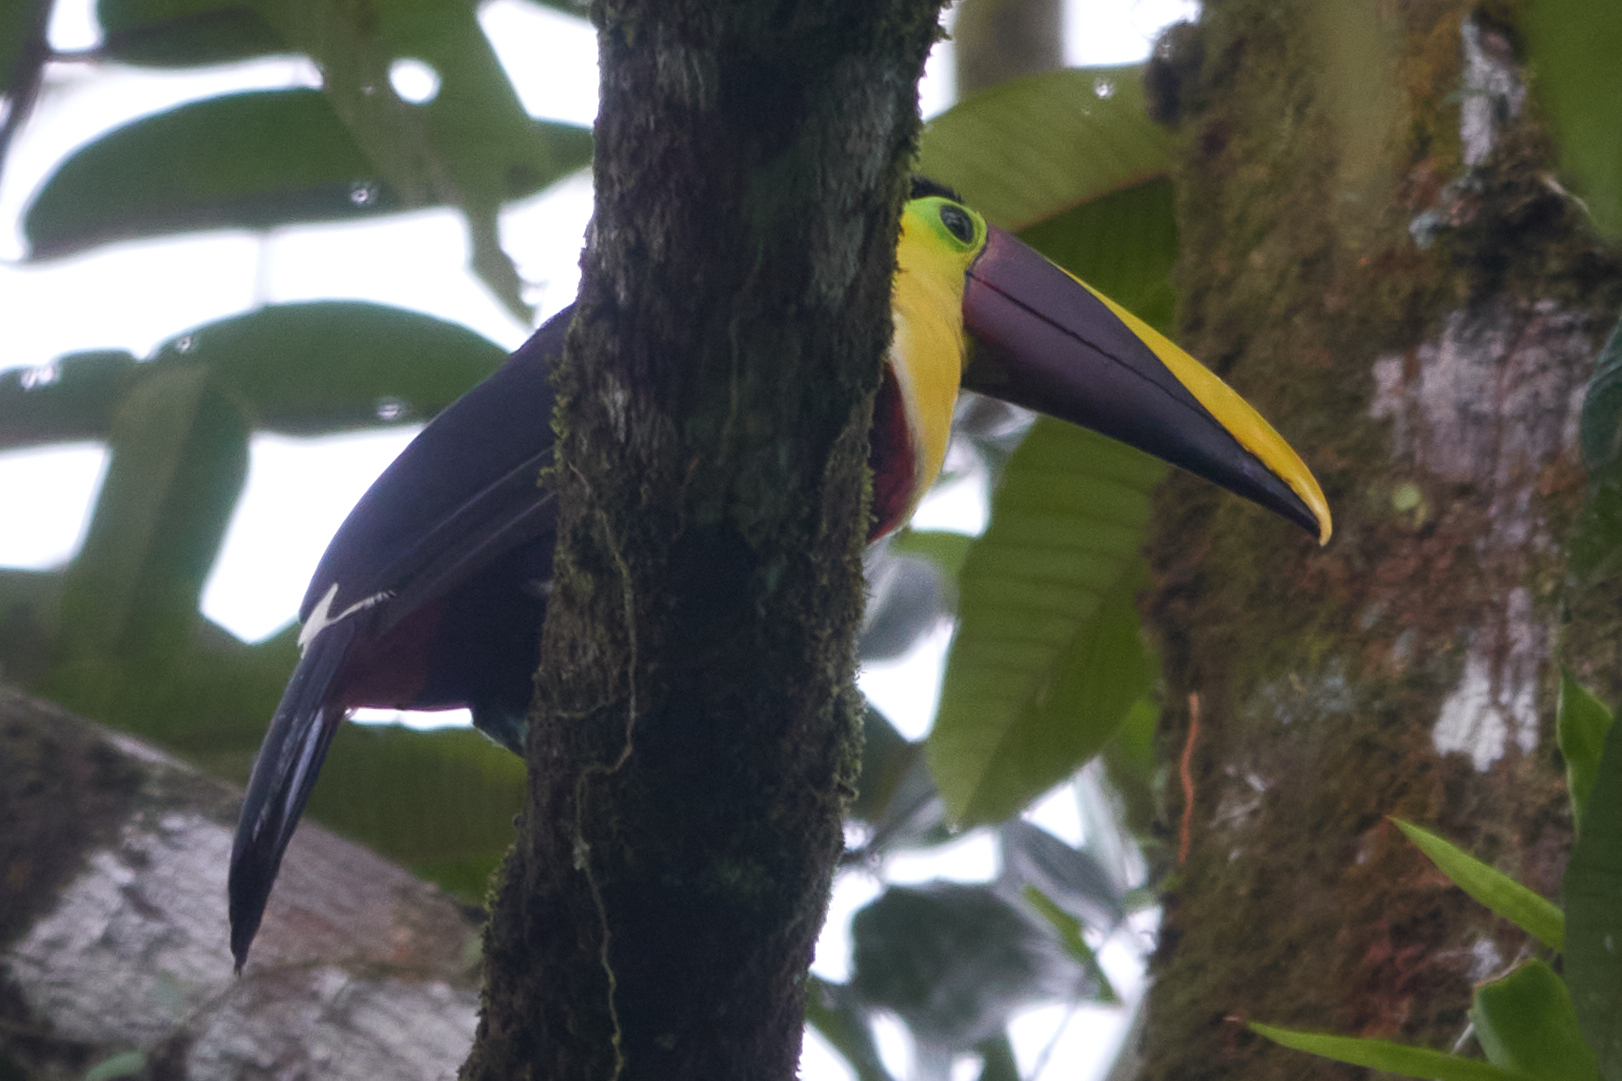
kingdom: Animalia
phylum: Chordata
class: Aves
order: Piciformes
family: Ramphastidae
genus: Ramphastos
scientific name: Ramphastos ambiguus
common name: Yellow-throated toucan
